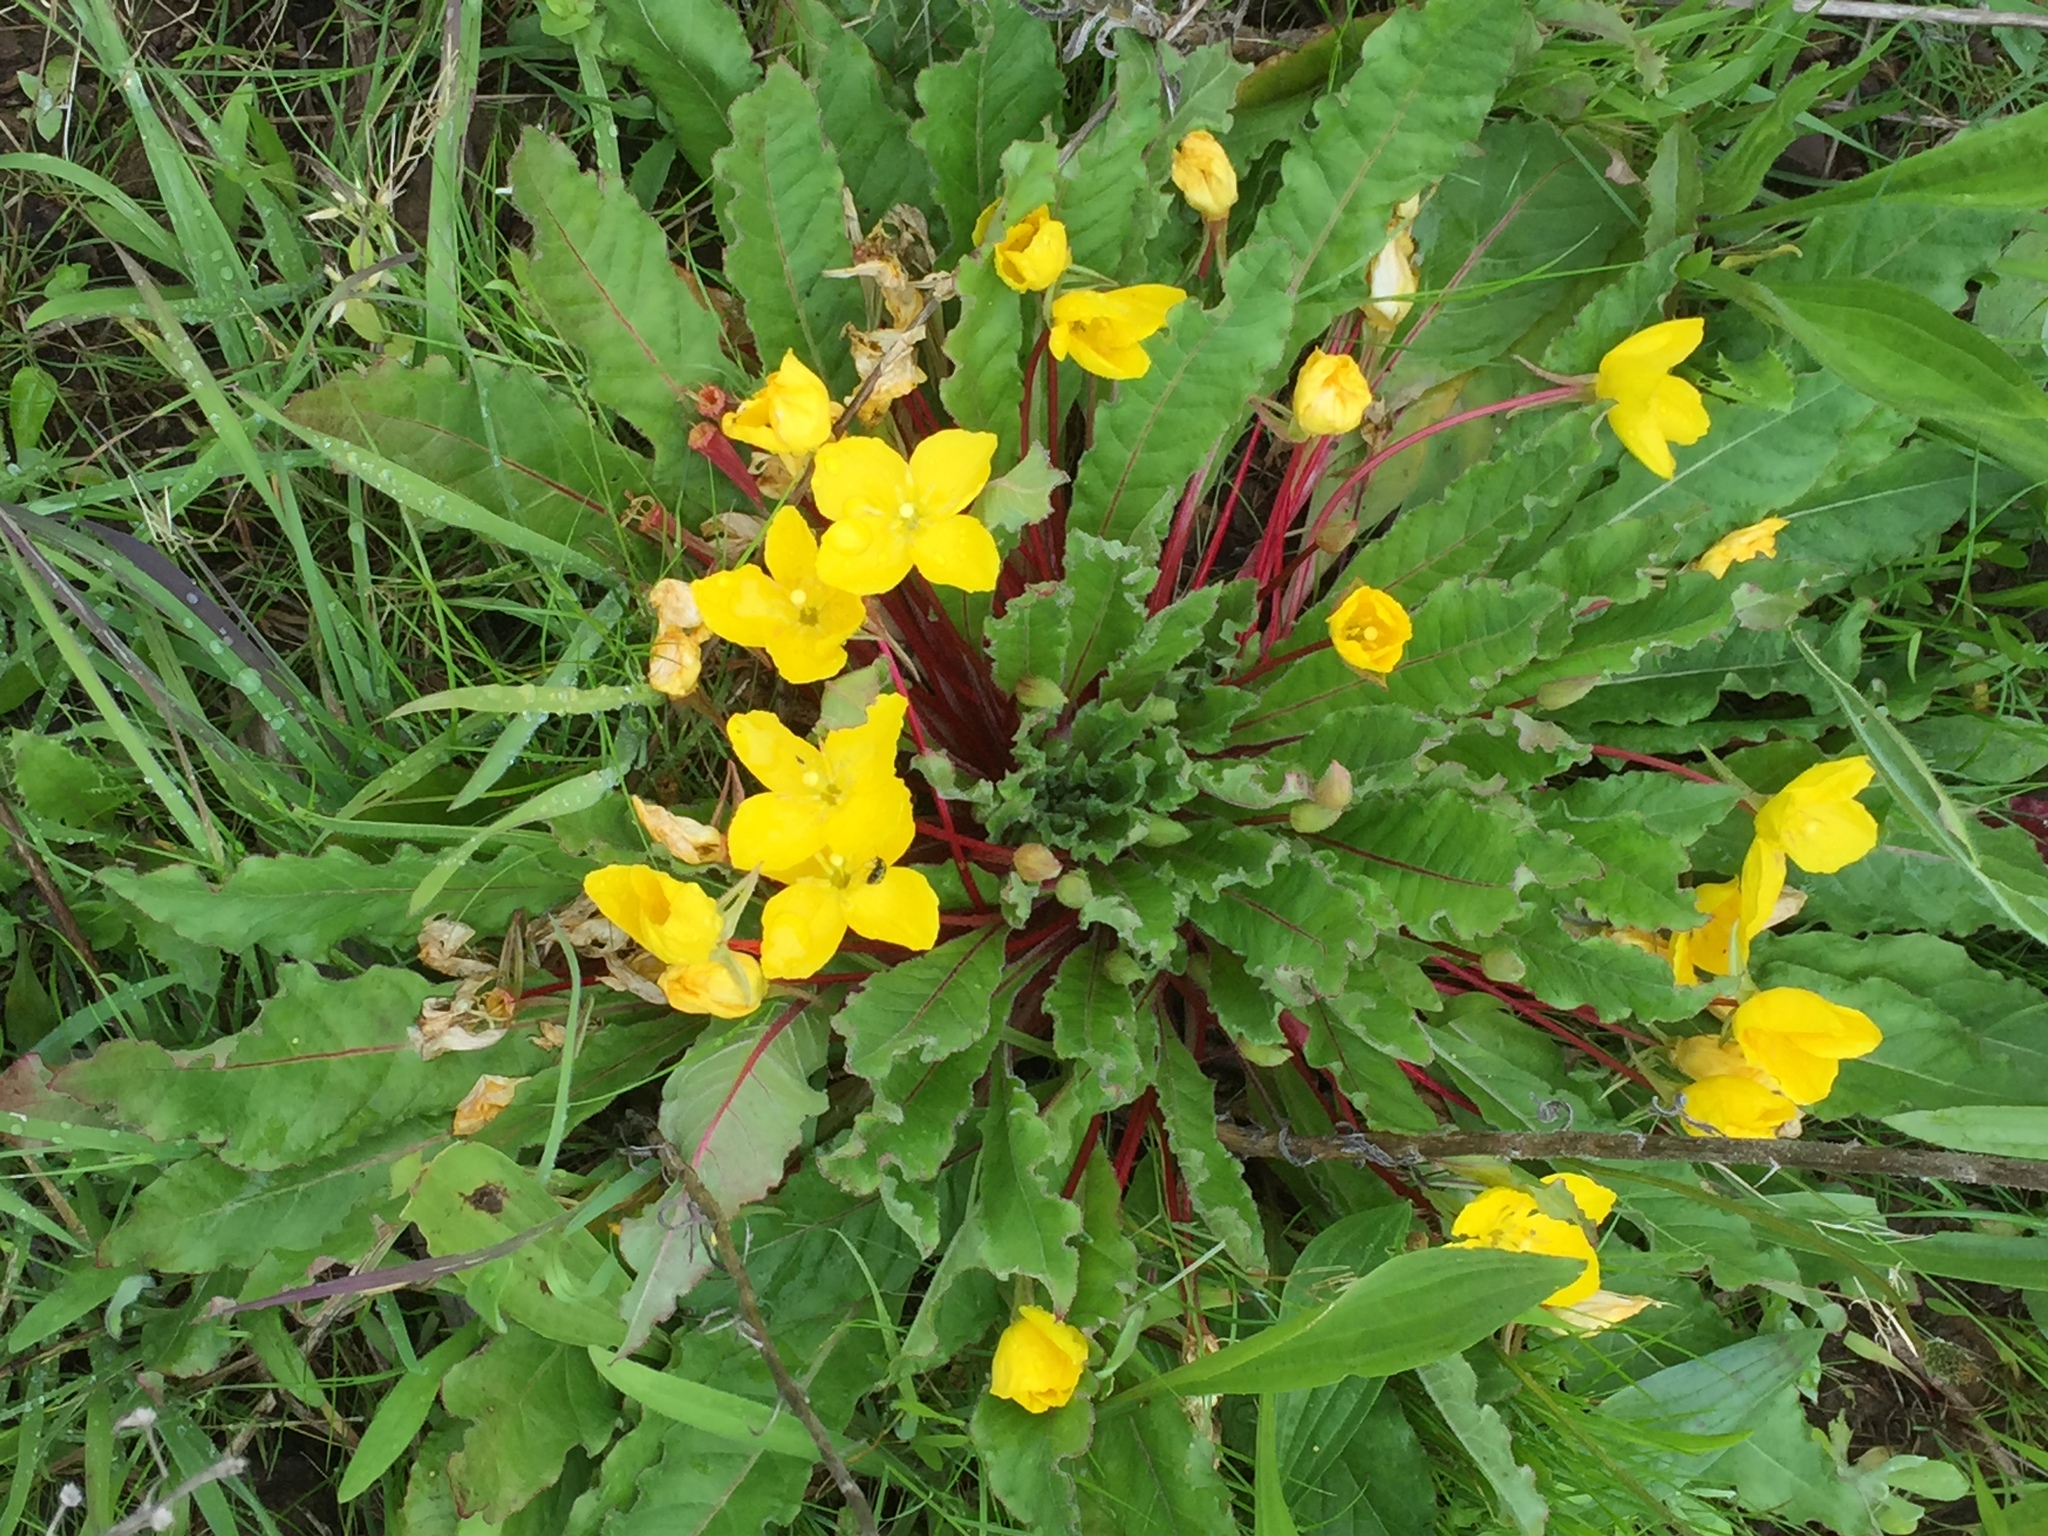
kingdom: Plantae
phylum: Tracheophyta
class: Magnoliopsida
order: Myrtales
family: Onagraceae
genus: Taraxia
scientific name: Taraxia ovata
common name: Goldeneggs
